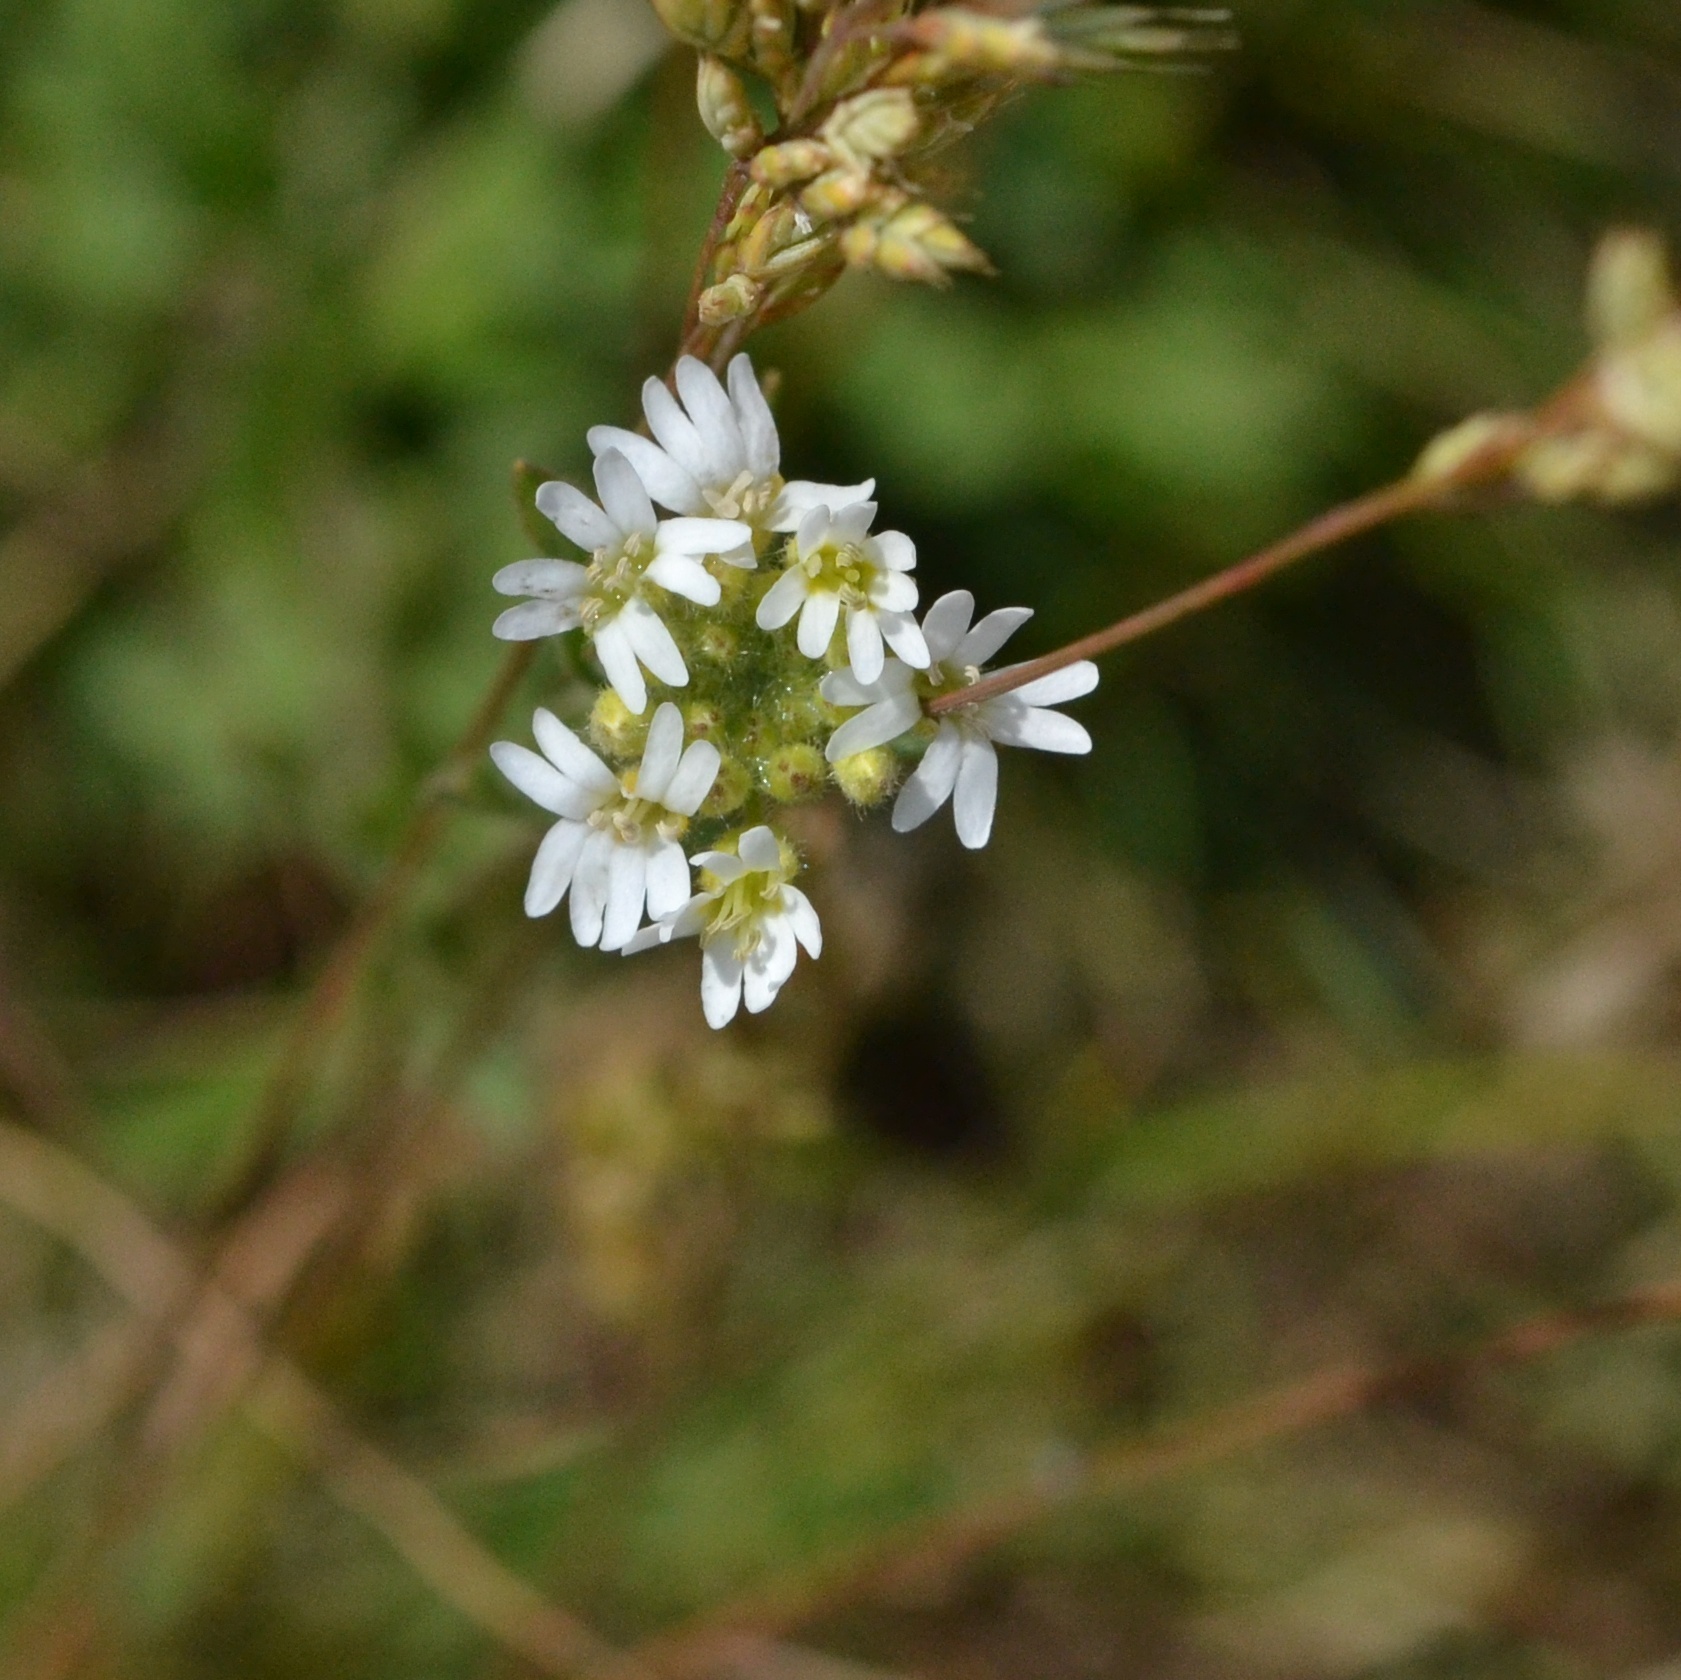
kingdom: Plantae
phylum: Tracheophyta
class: Magnoliopsida
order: Brassicales
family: Brassicaceae
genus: Berteroa
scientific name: Berteroa incana
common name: Hoary alison
